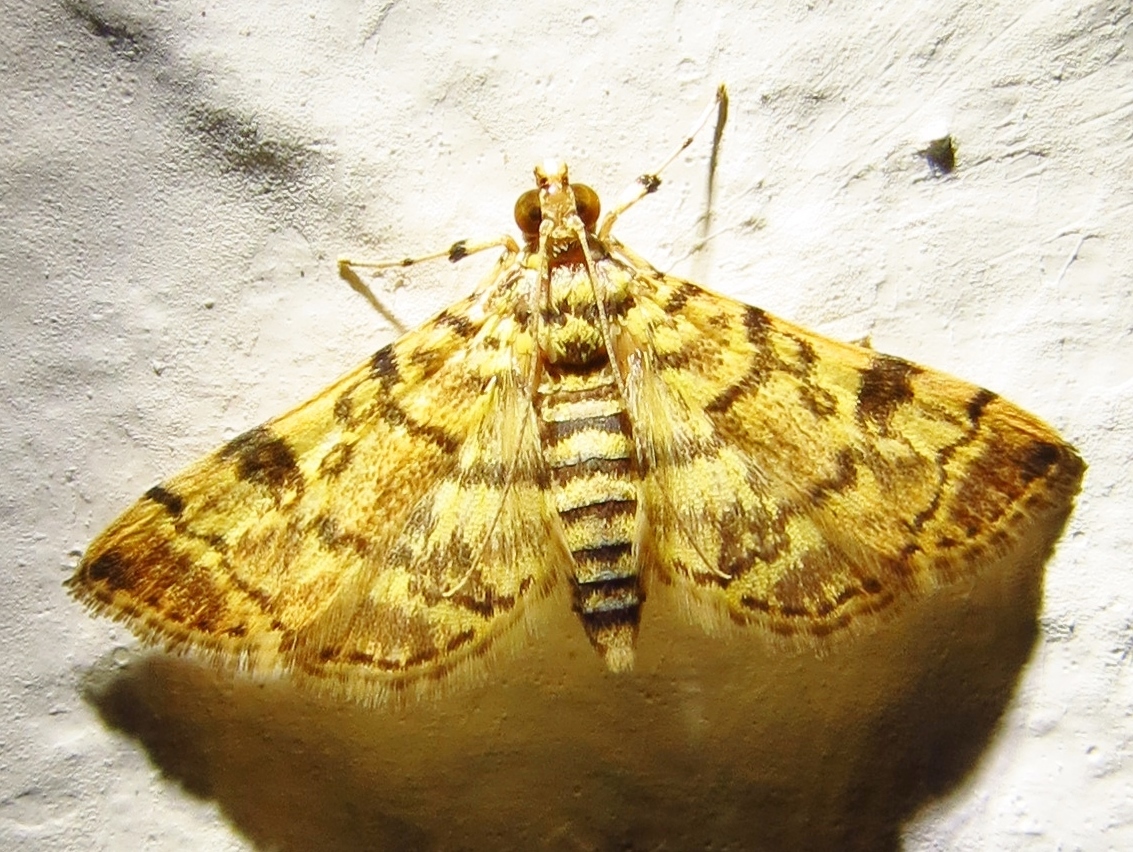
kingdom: Animalia
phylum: Arthropoda
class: Insecta
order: Lepidoptera
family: Crambidae
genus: Apogeshna
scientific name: Apogeshna stenialis
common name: Checkered apogeshna moth
